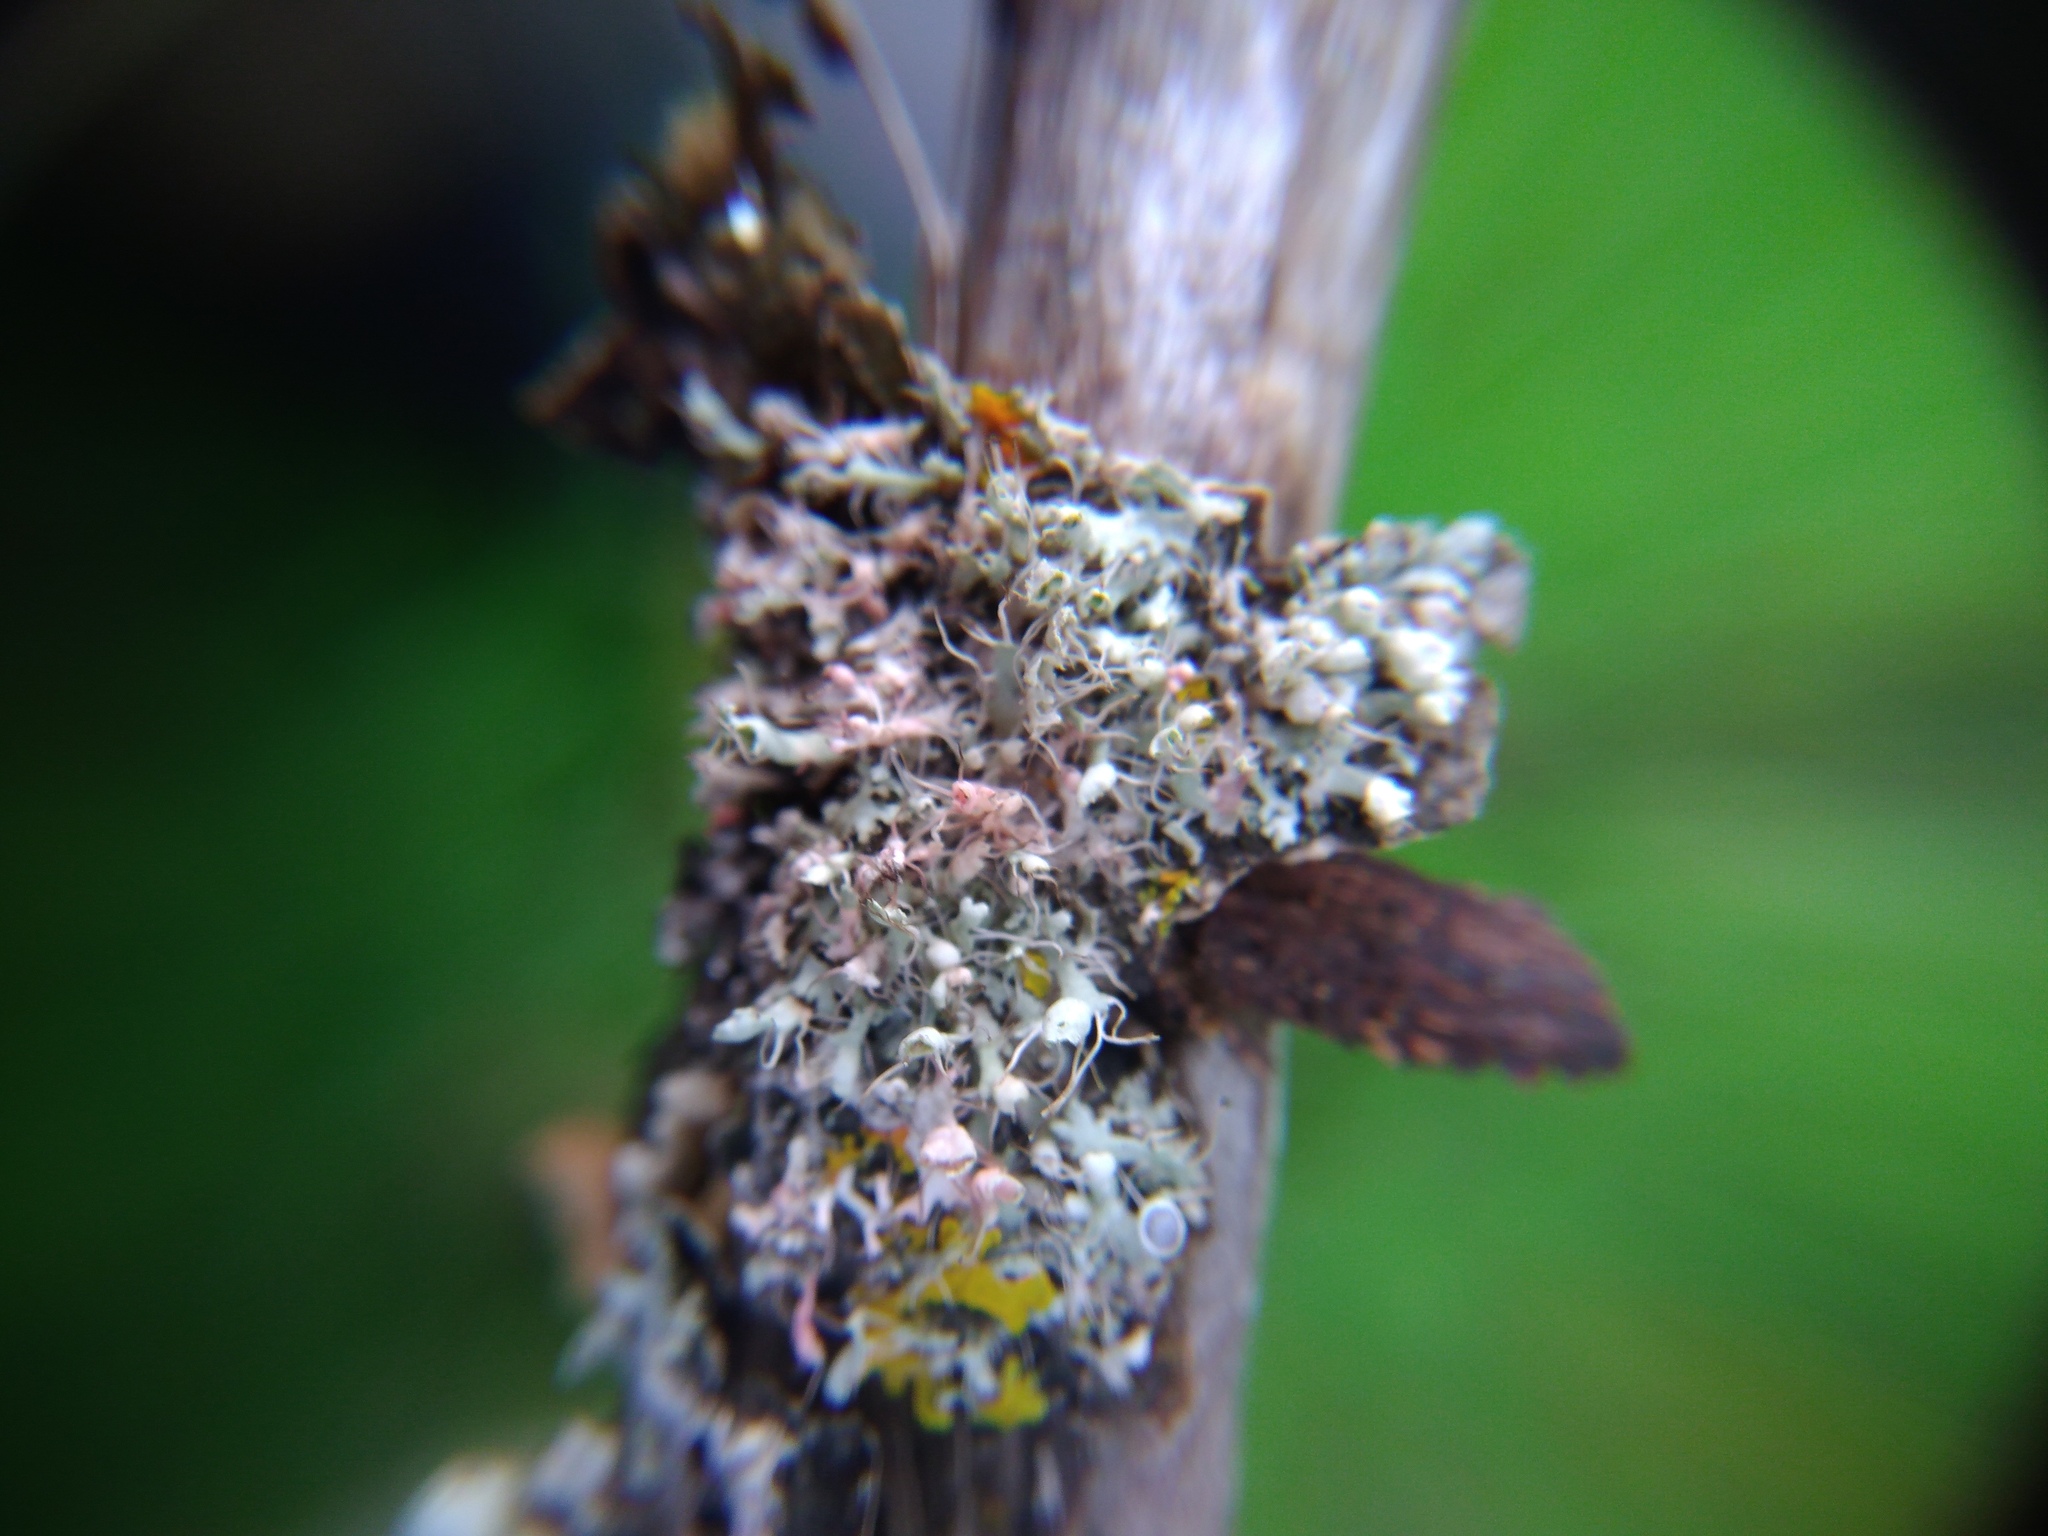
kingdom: Fungi
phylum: Basidiomycota
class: Agaricomycetes
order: Corticiales
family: Corticiaceae
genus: Laetisaria
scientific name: Laetisaria lichenicola
